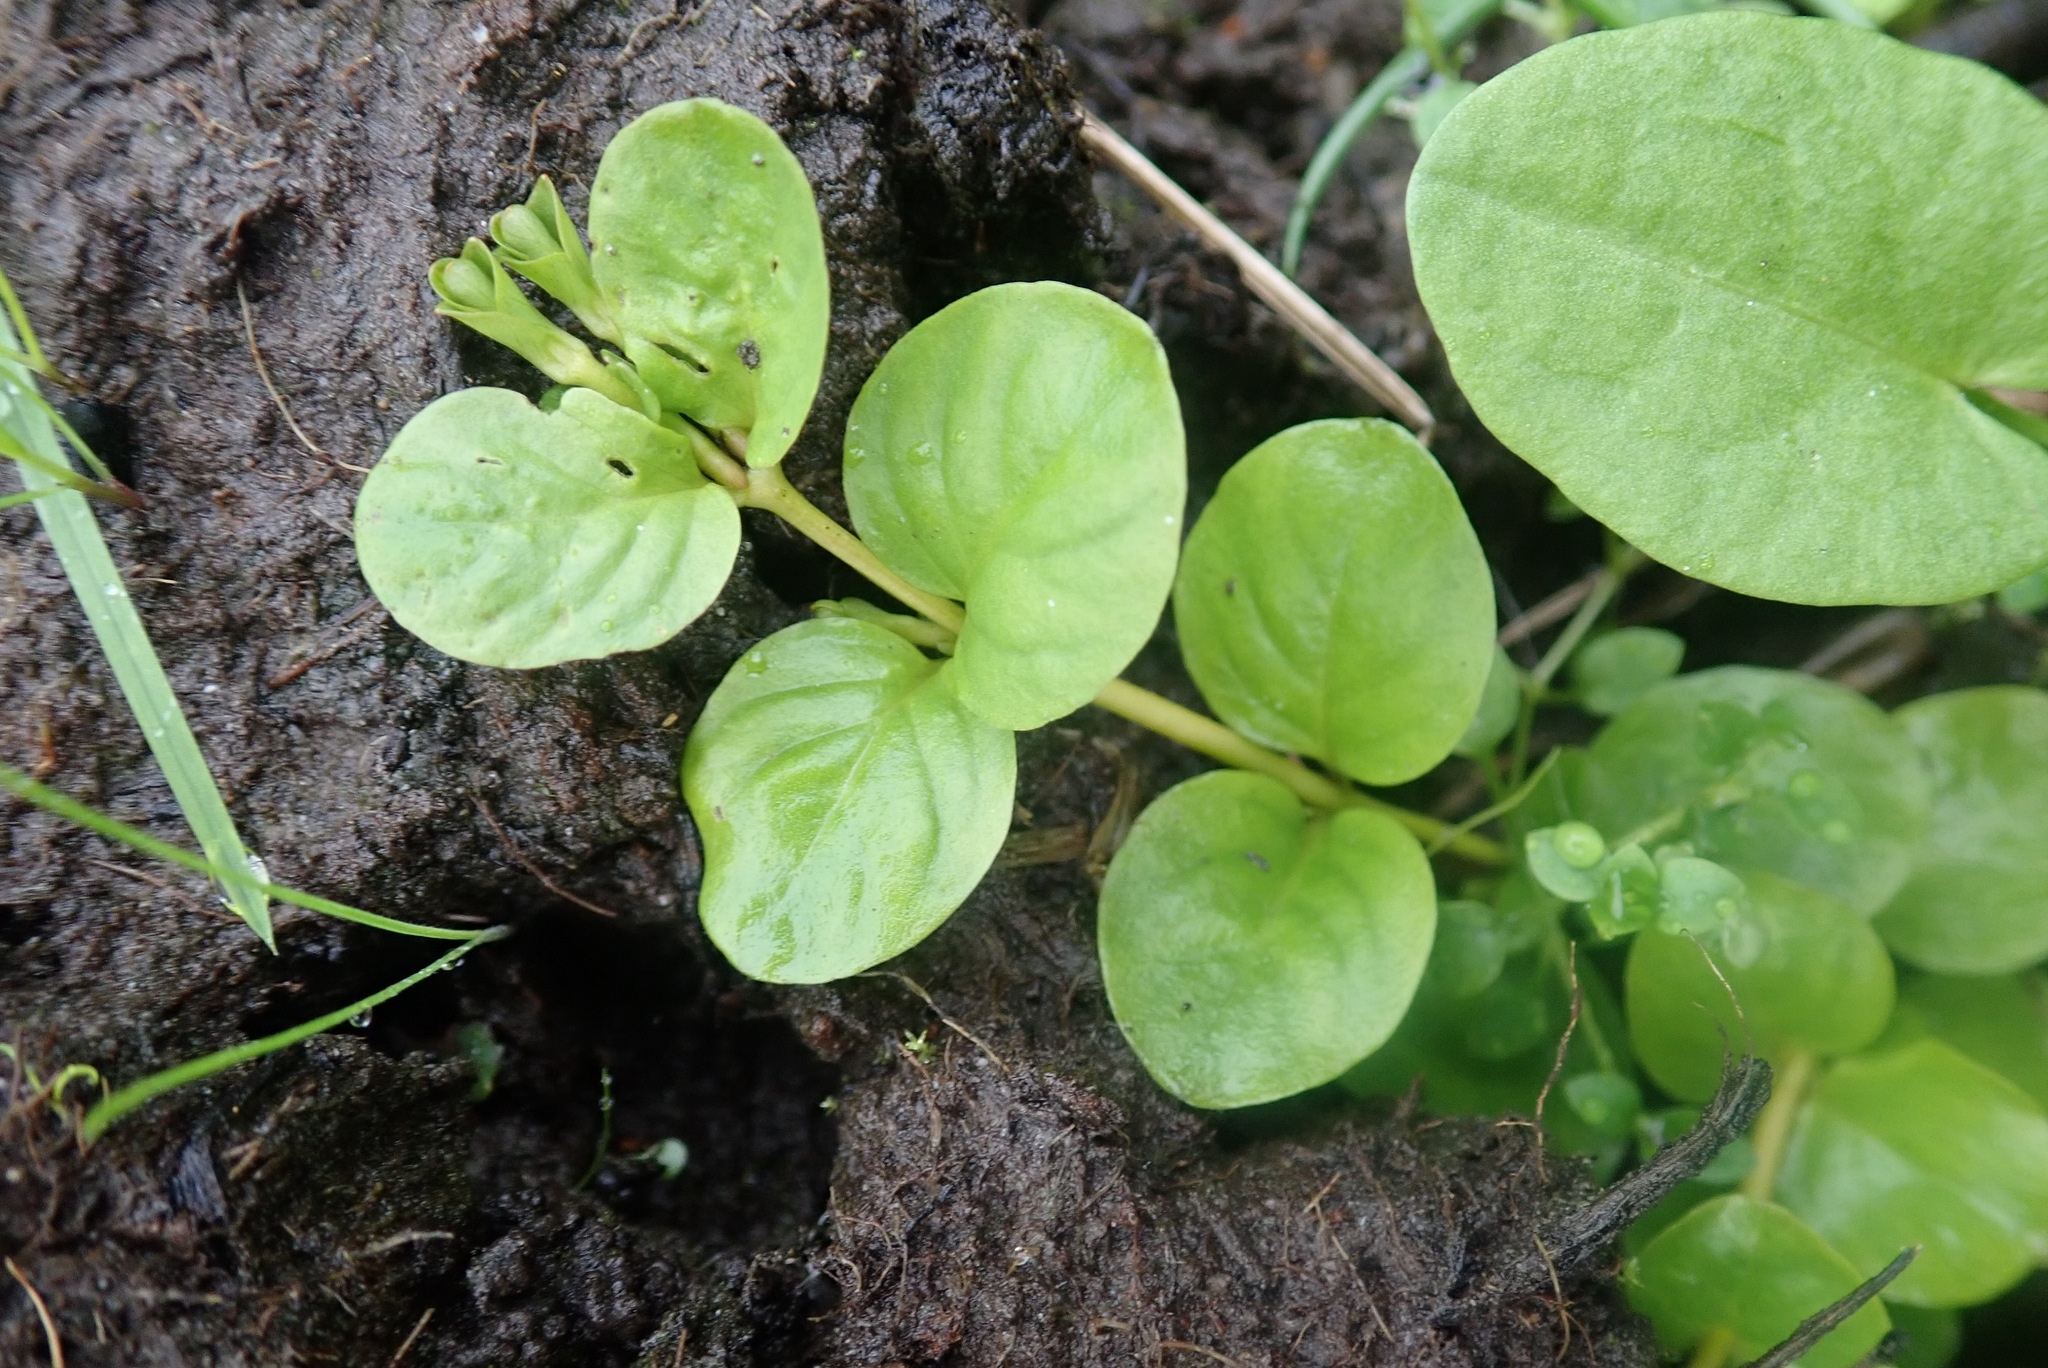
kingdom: Plantae
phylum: Tracheophyta
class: Magnoliopsida
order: Ericales
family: Primulaceae
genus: Lysimachia
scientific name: Lysimachia nummularia
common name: Moneywort
